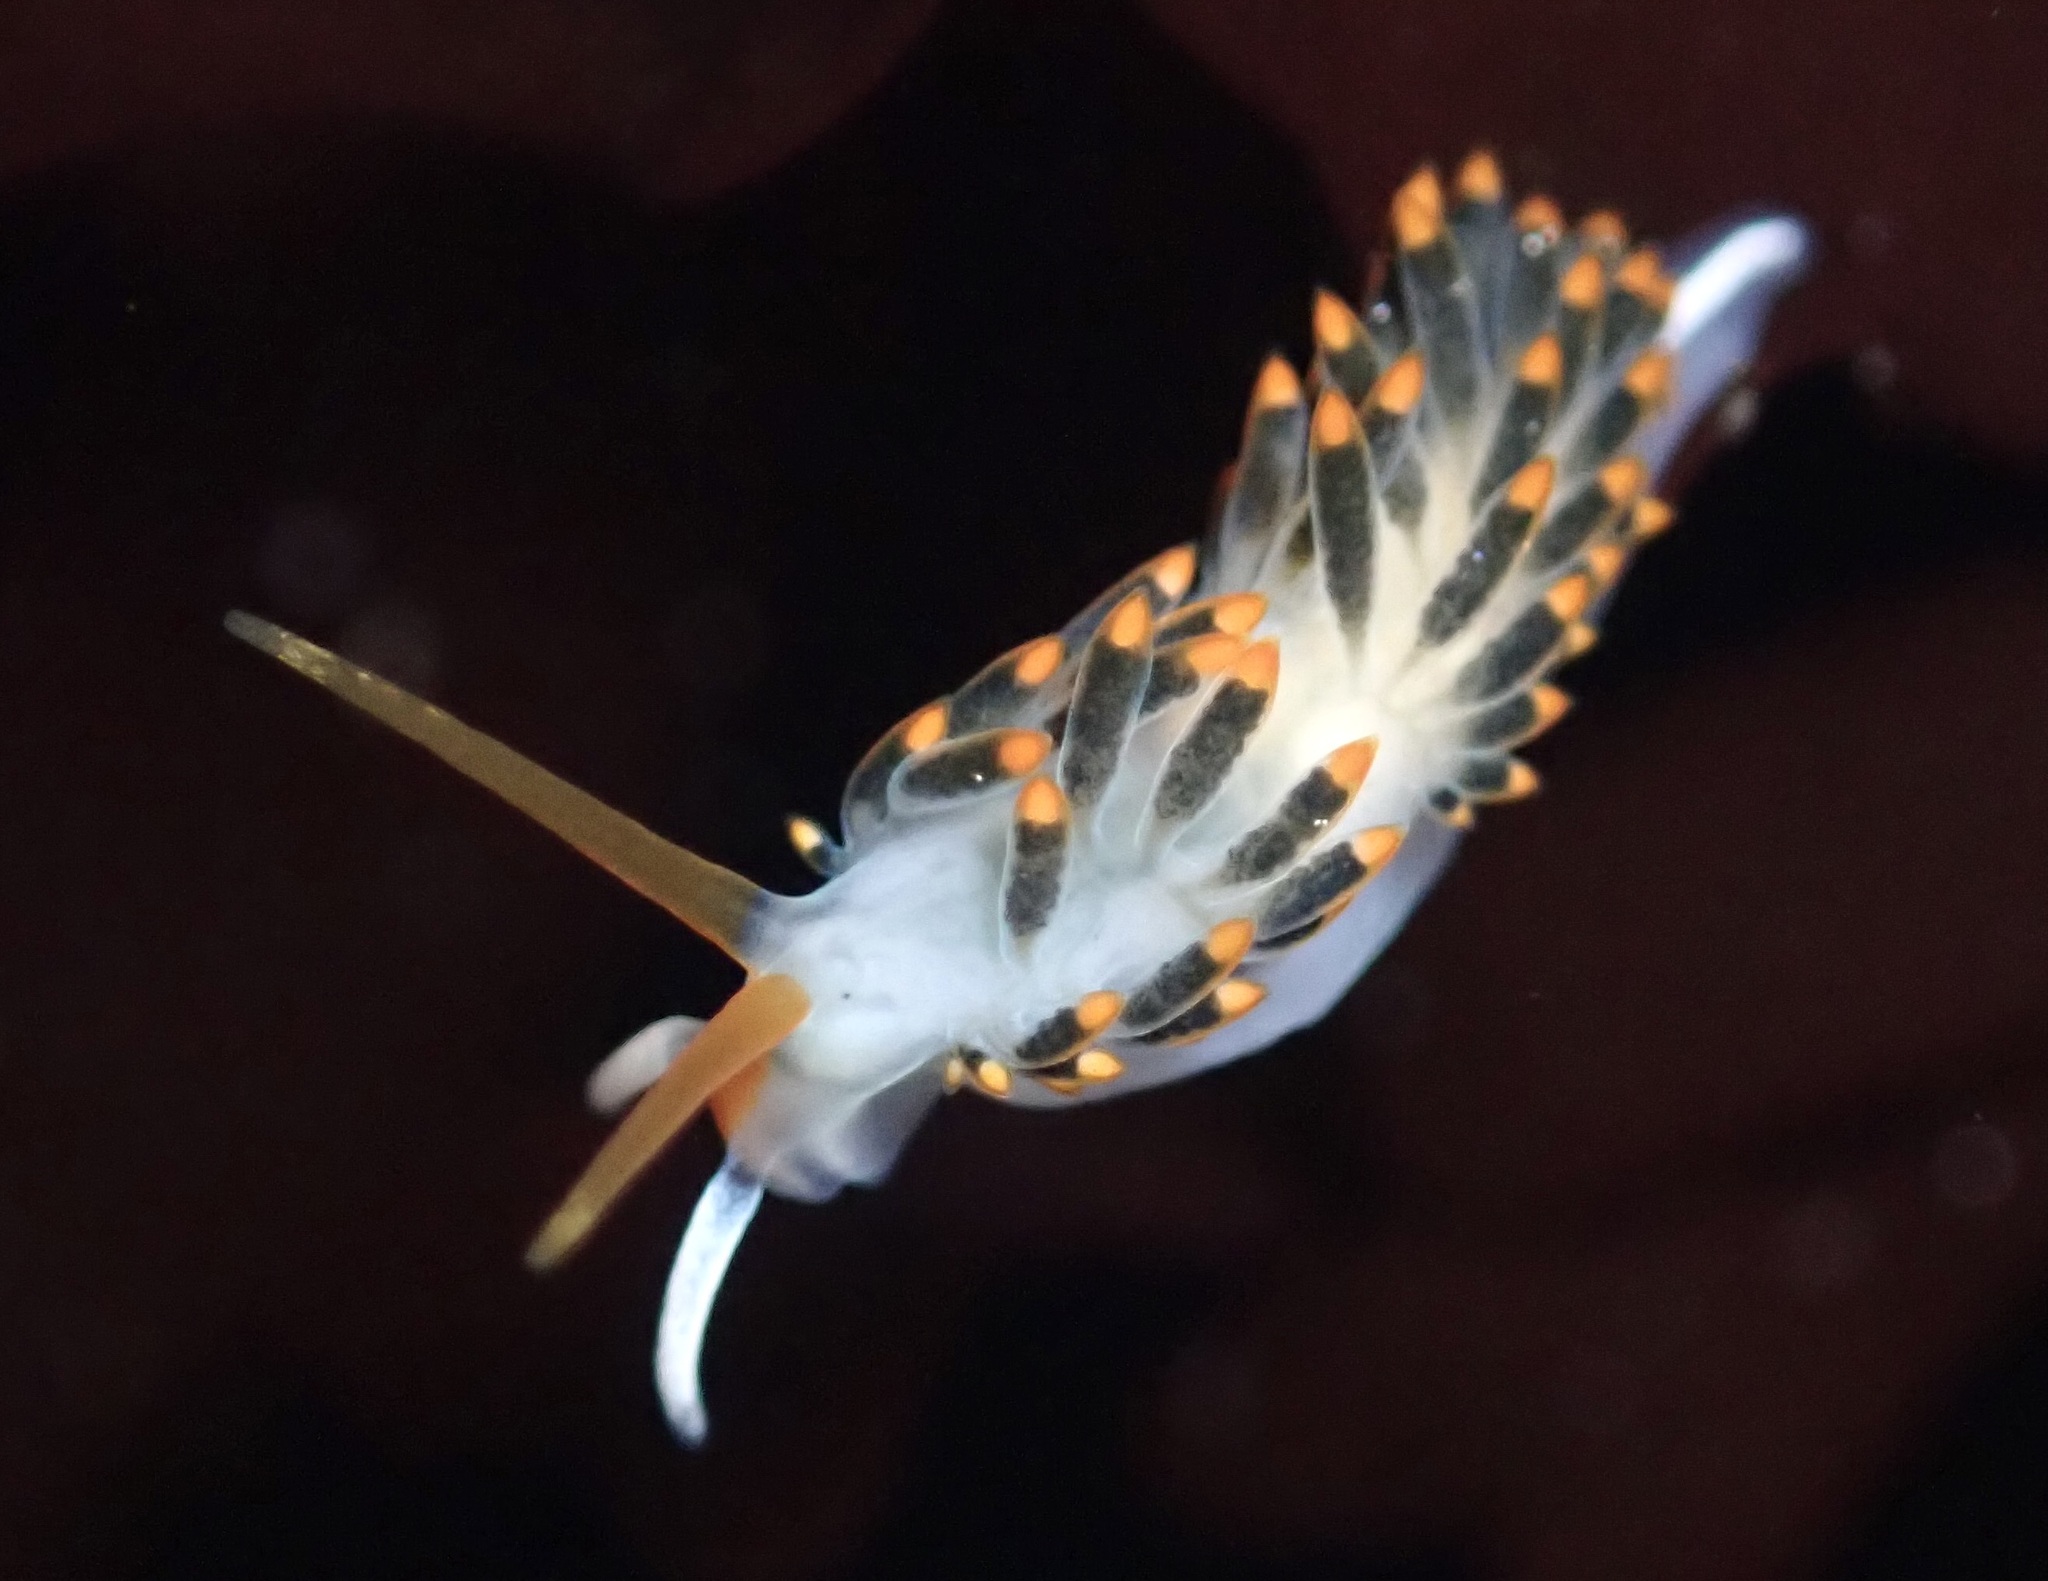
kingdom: Animalia
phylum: Mollusca
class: Gastropoda
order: Nudibranchia
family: Trinchesiidae
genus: Diaphoreolis
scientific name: Diaphoreolis lagunae
